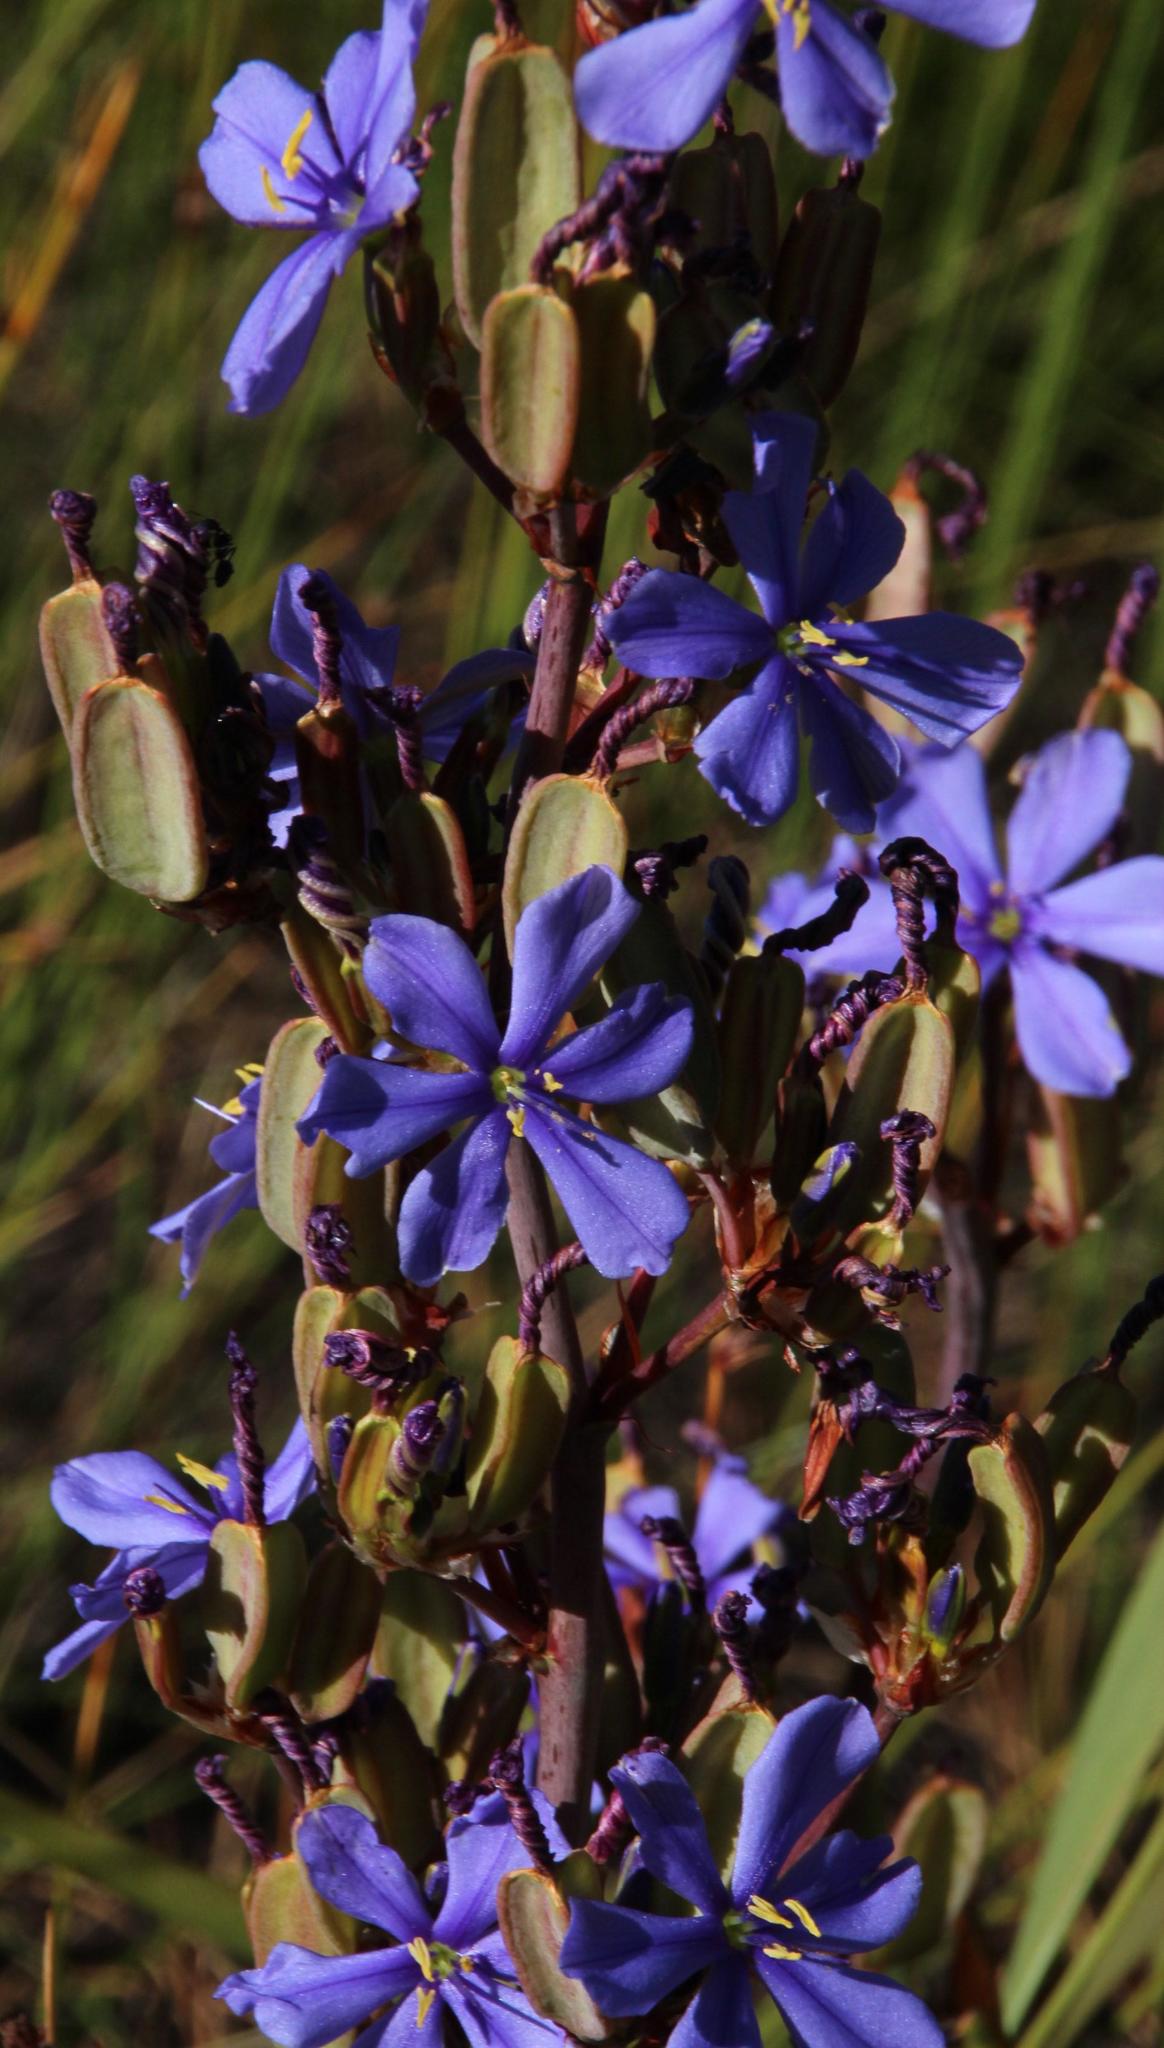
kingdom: Plantae
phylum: Tracheophyta
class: Liliopsida
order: Asparagales
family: Iridaceae
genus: Aristea
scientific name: Aristea capitata
